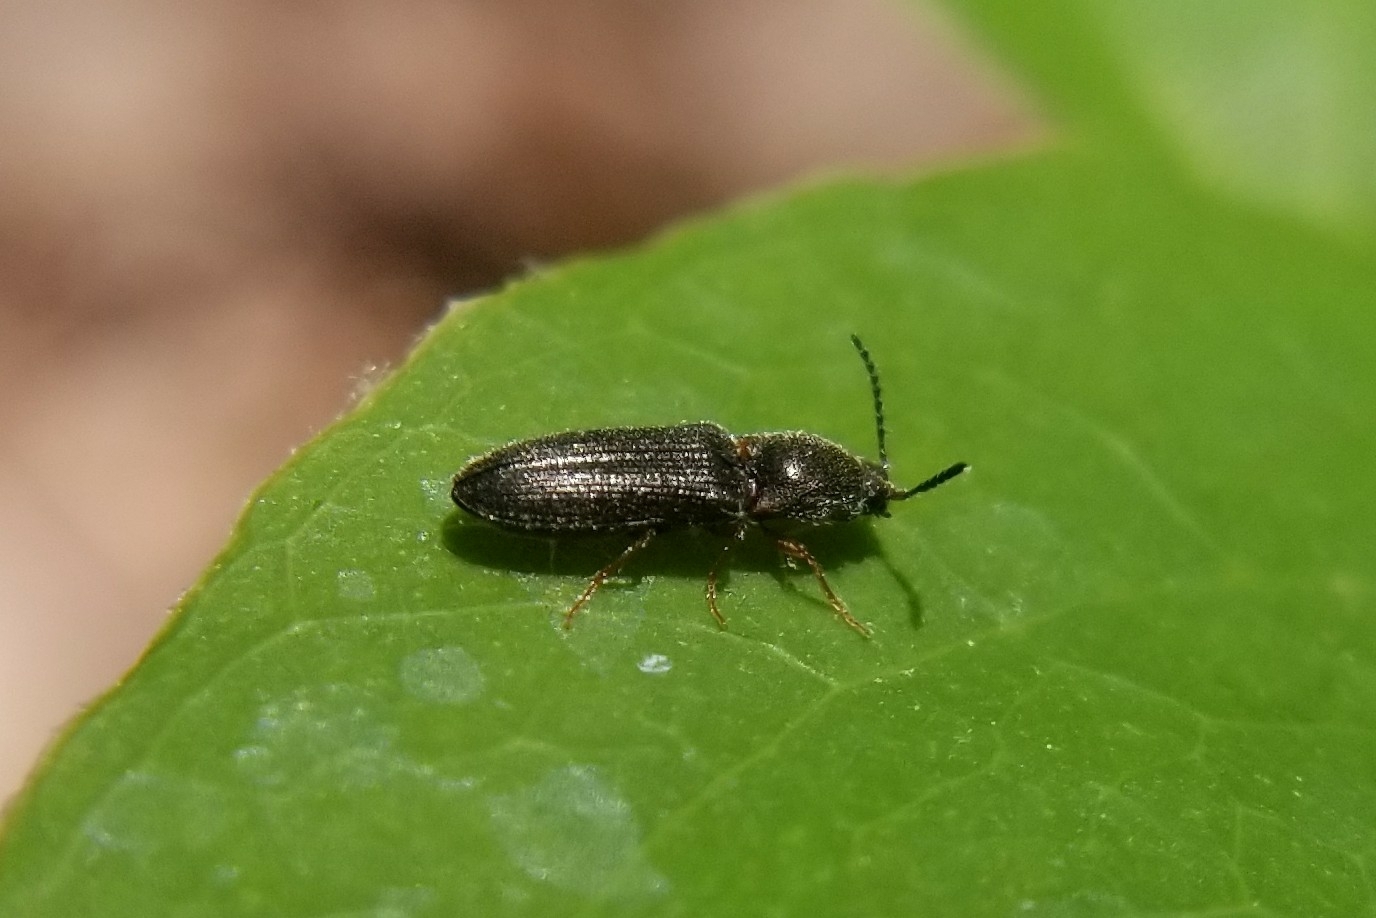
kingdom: Animalia
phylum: Arthropoda
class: Insecta
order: Coleoptera
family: Elateridae
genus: Limonius
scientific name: Limonius basilaris
